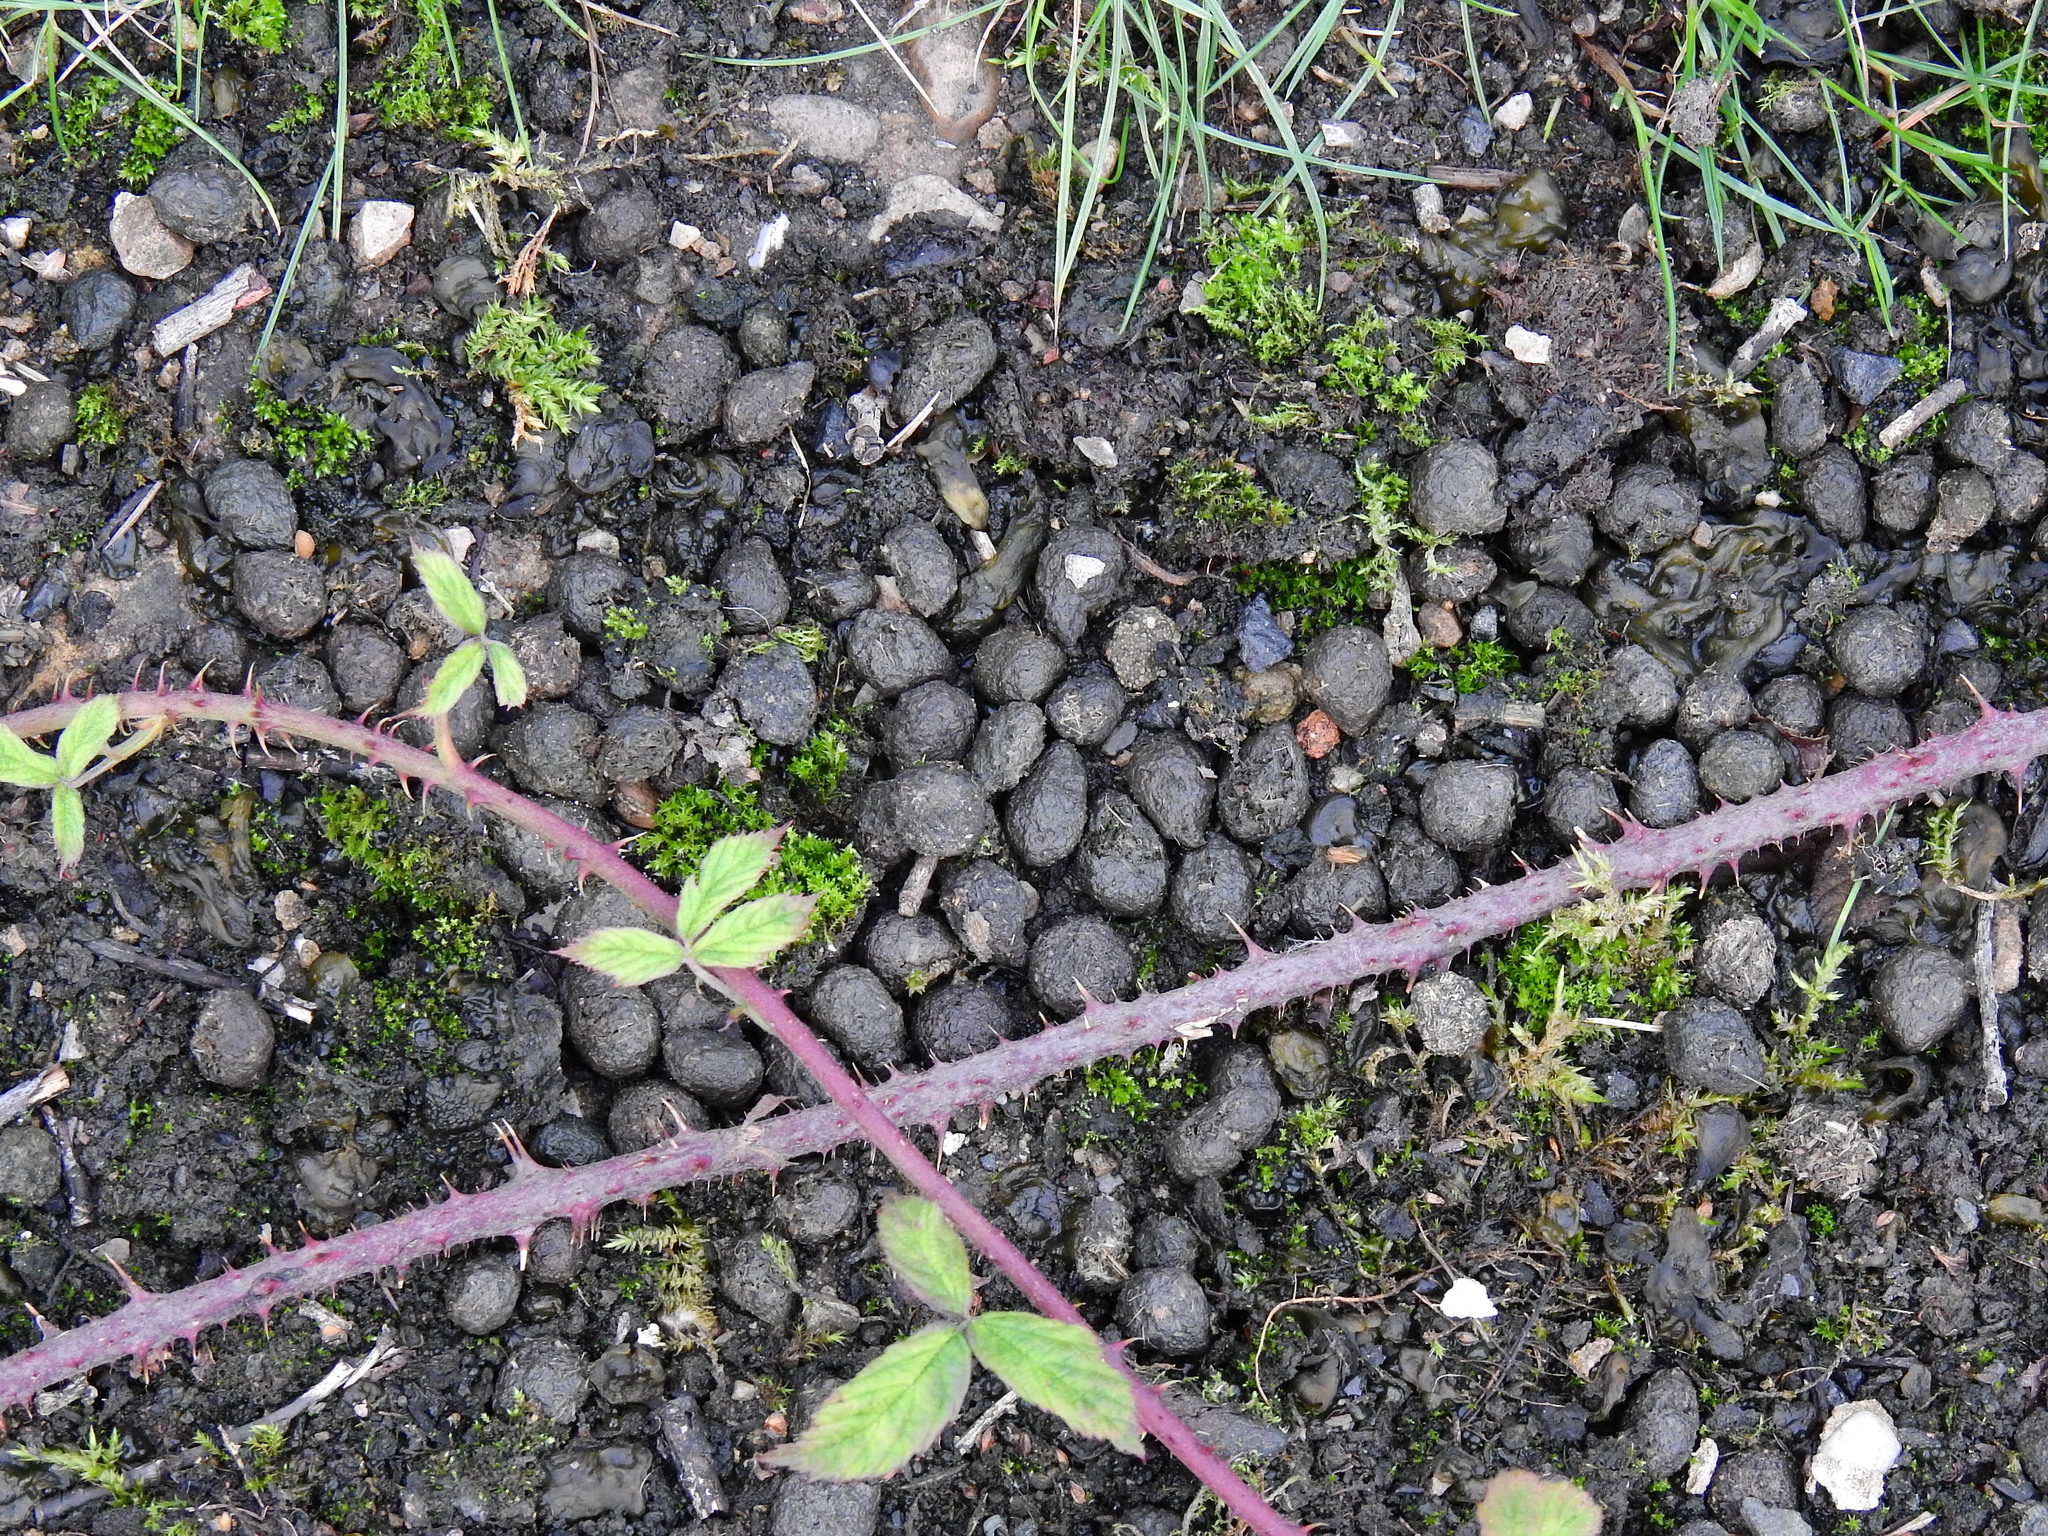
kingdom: Animalia
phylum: Chordata
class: Mammalia
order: Lagomorpha
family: Leporidae
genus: Oryctolagus
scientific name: Oryctolagus cuniculus
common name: European rabbit
